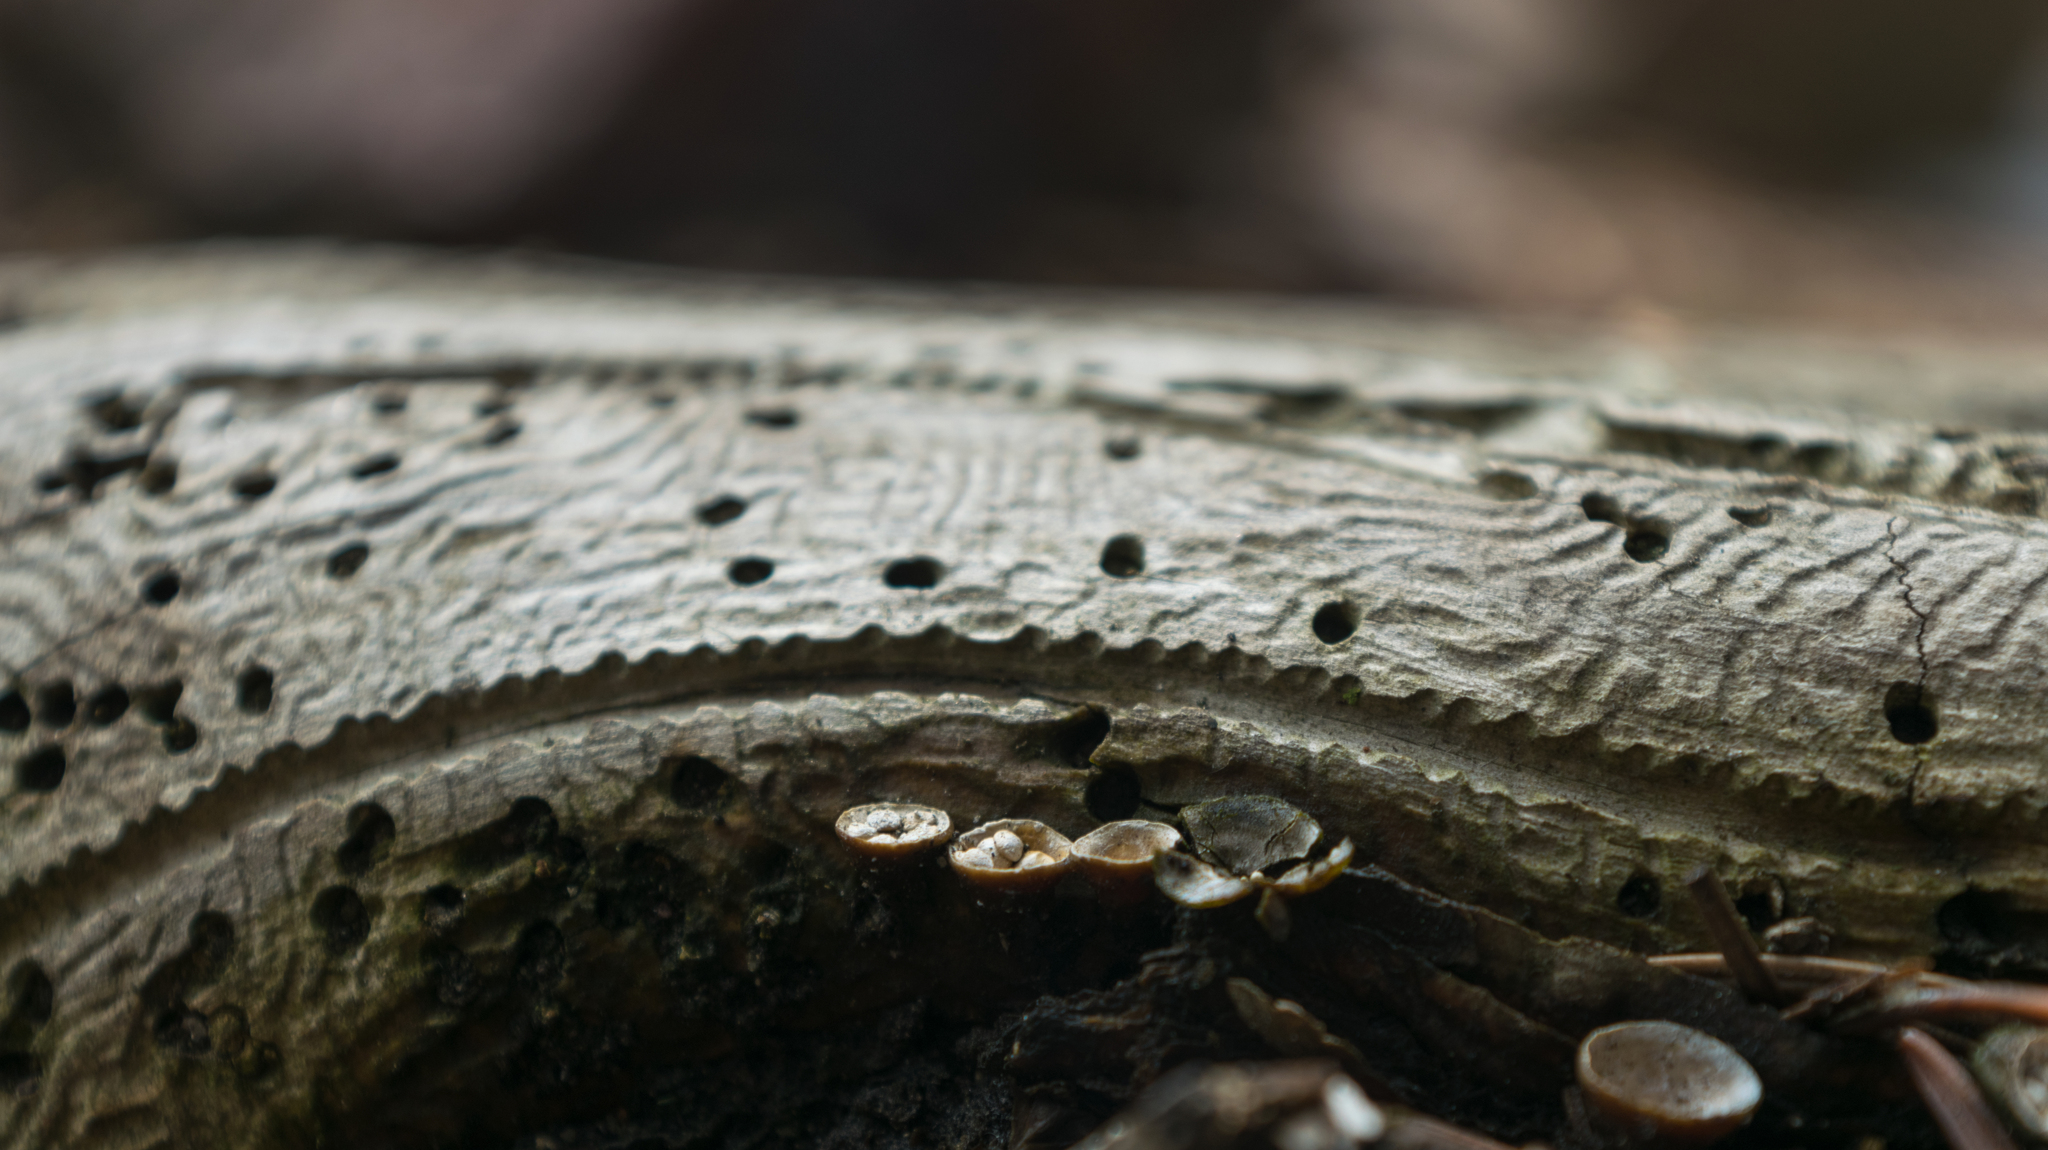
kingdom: Fungi
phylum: Basidiomycota
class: Agaricomycetes
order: Agaricales
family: Nidulariaceae
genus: Crucibulum
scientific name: Crucibulum laeve
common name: Common bird's nest
